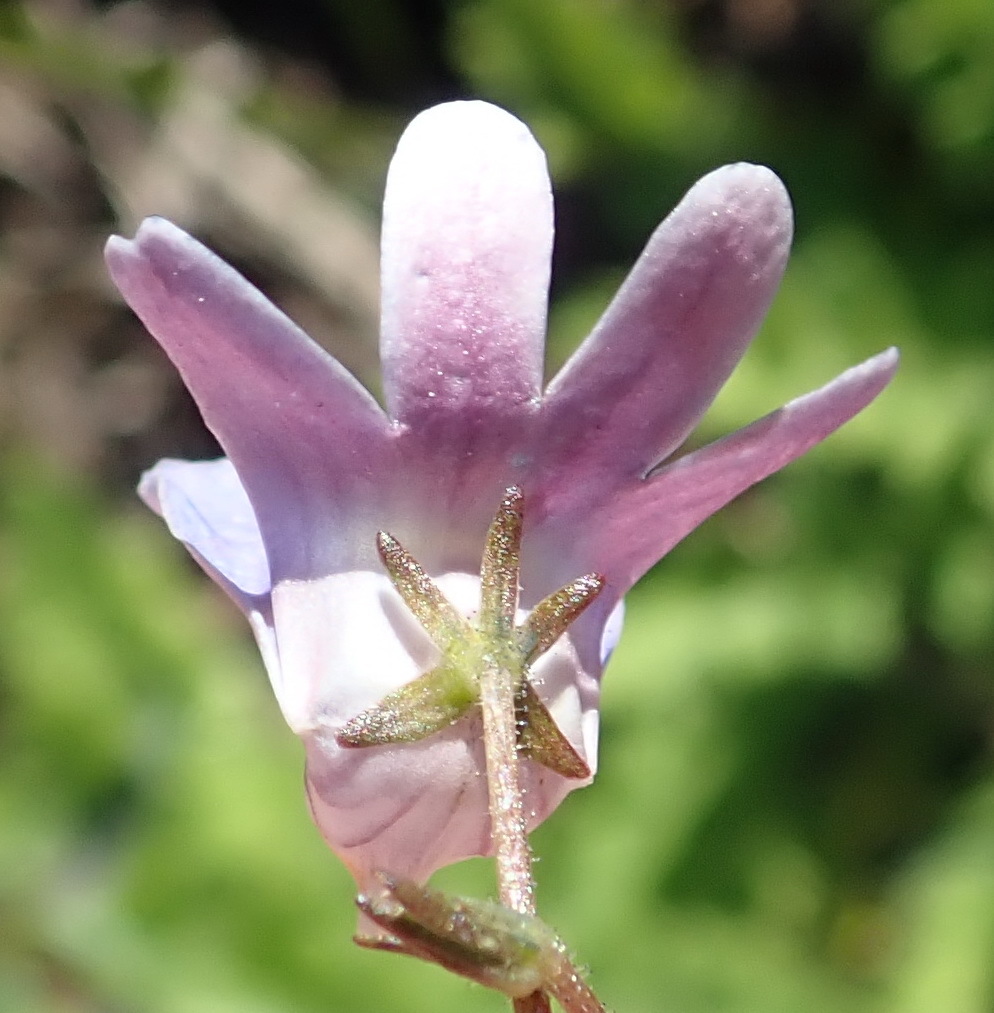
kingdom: Plantae
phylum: Tracheophyta
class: Magnoliopsida
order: Lamiales
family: Scrophulariaceae
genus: Nemesia
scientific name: Nemesia affinis
